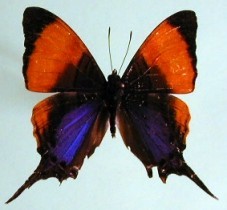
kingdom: Animalia
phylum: Arthropoda
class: Insecta
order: Lepidoptera
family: Nymphalidae
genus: Marpesia
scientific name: Marpesia marcella
